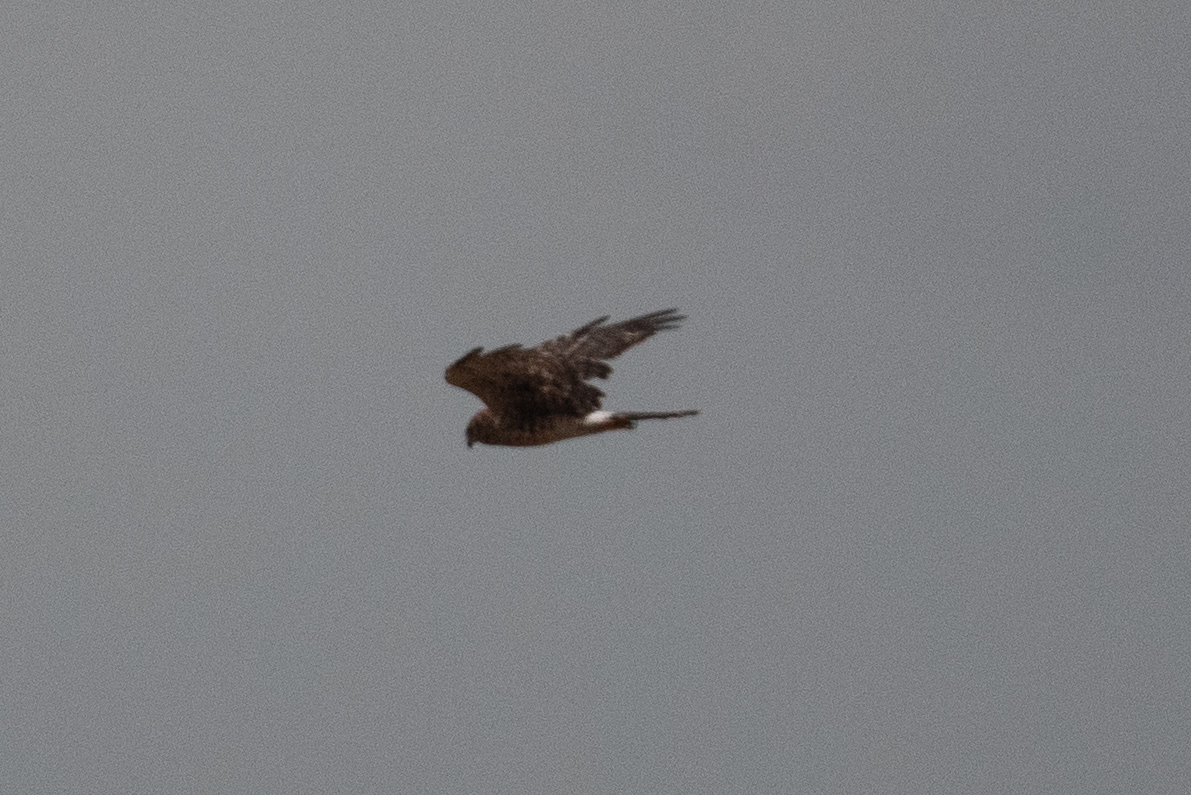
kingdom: Animalia
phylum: Chordata
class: Aves
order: Accipitriformes
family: Accipitridae
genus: Circus
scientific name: Circus cyaneus
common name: Hen harrier
